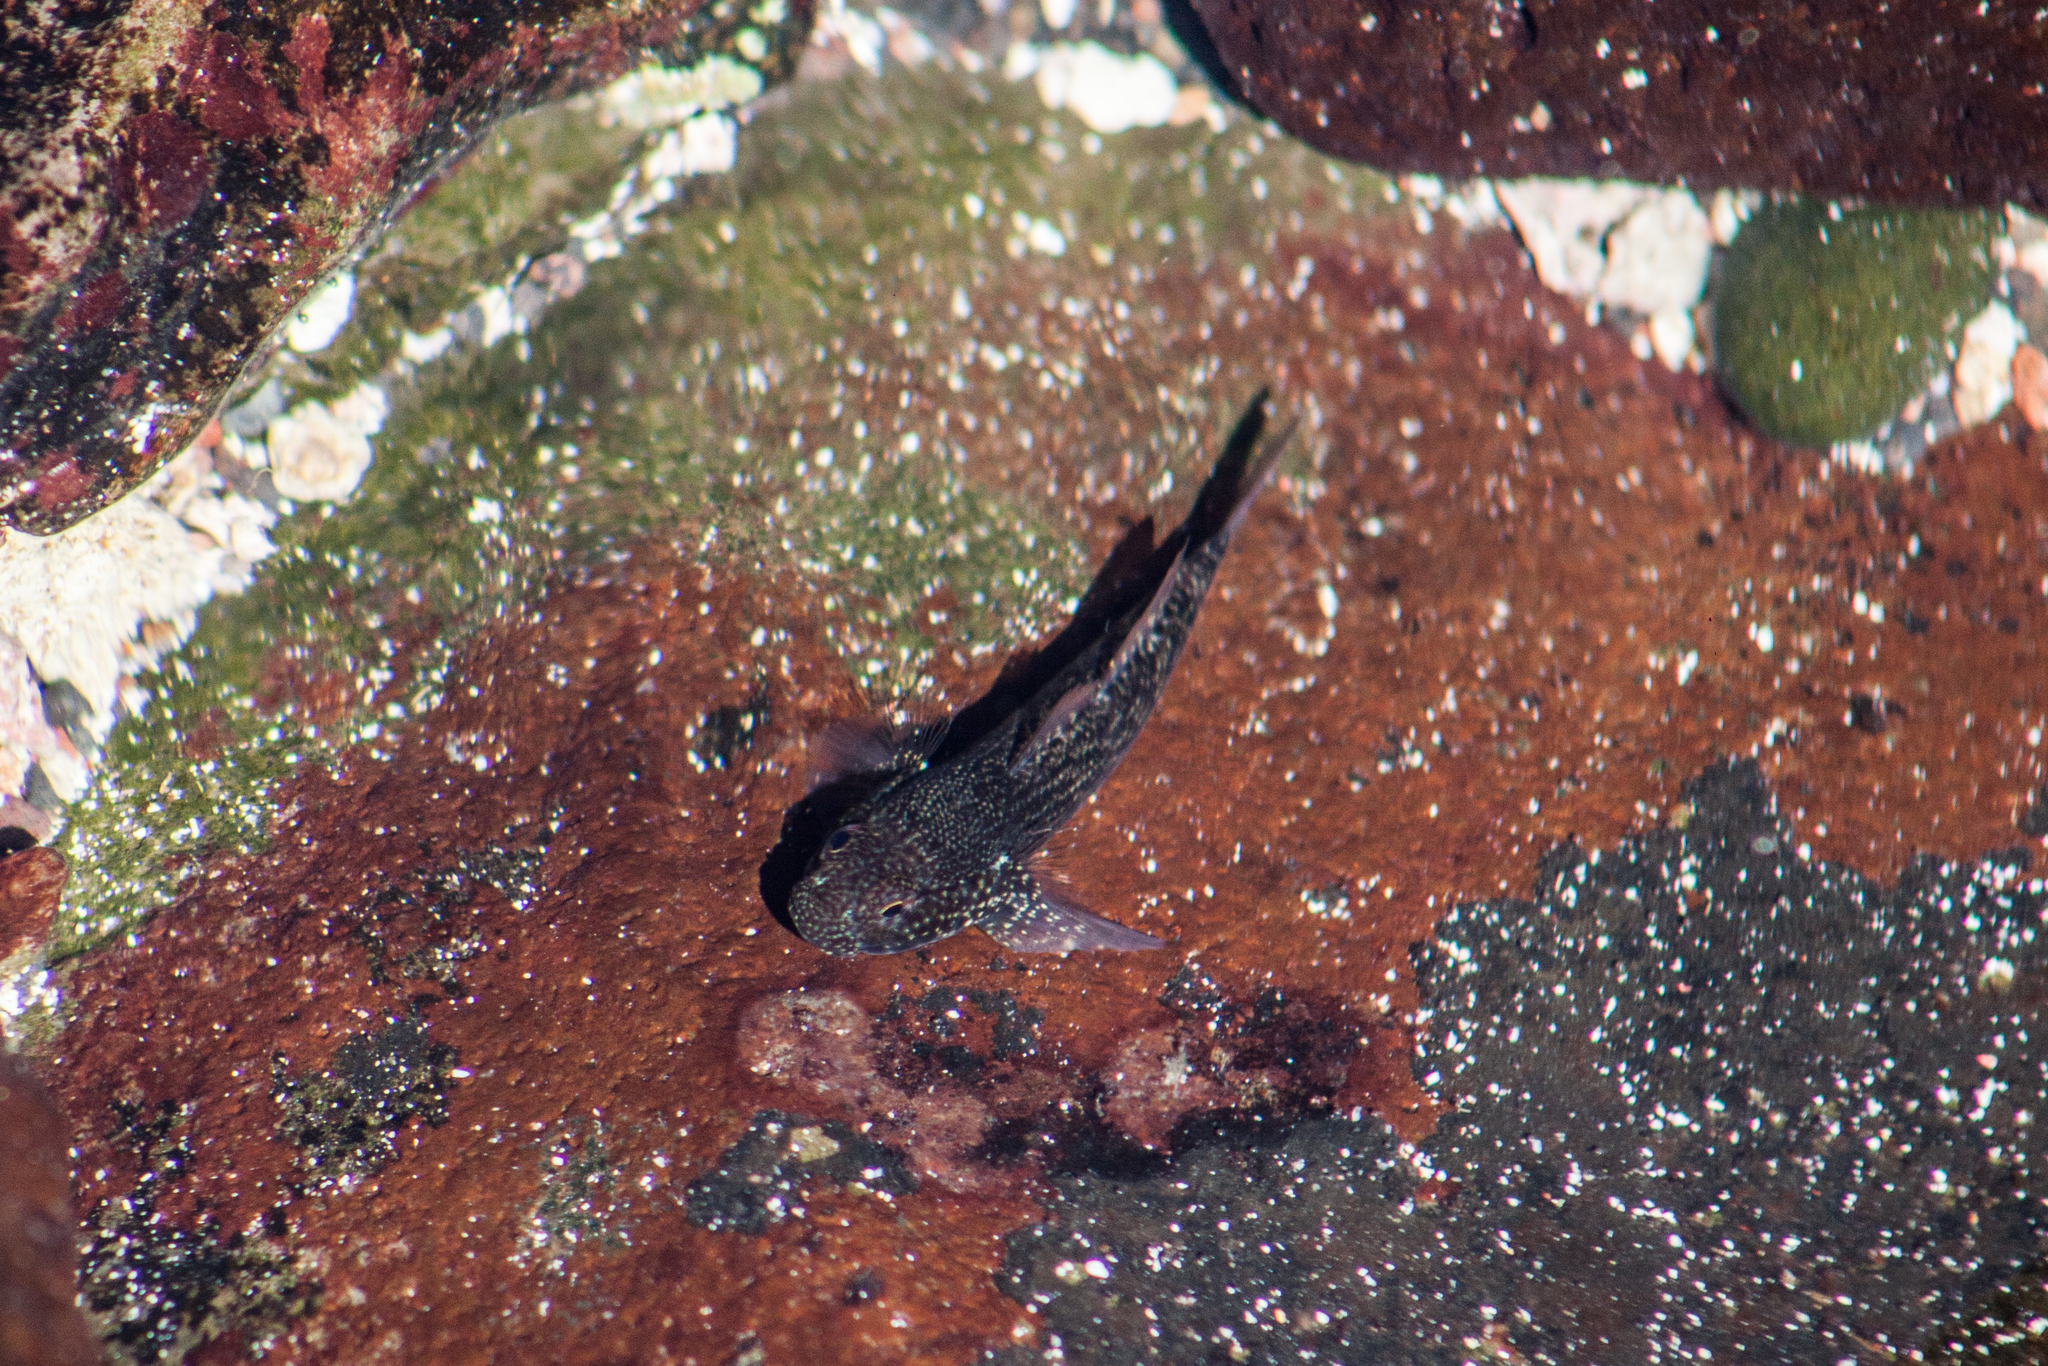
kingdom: Animalia
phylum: Chordata
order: Perciformes
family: Gobiidae
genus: Bathygobius
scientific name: Bathygobius brasiliensis
